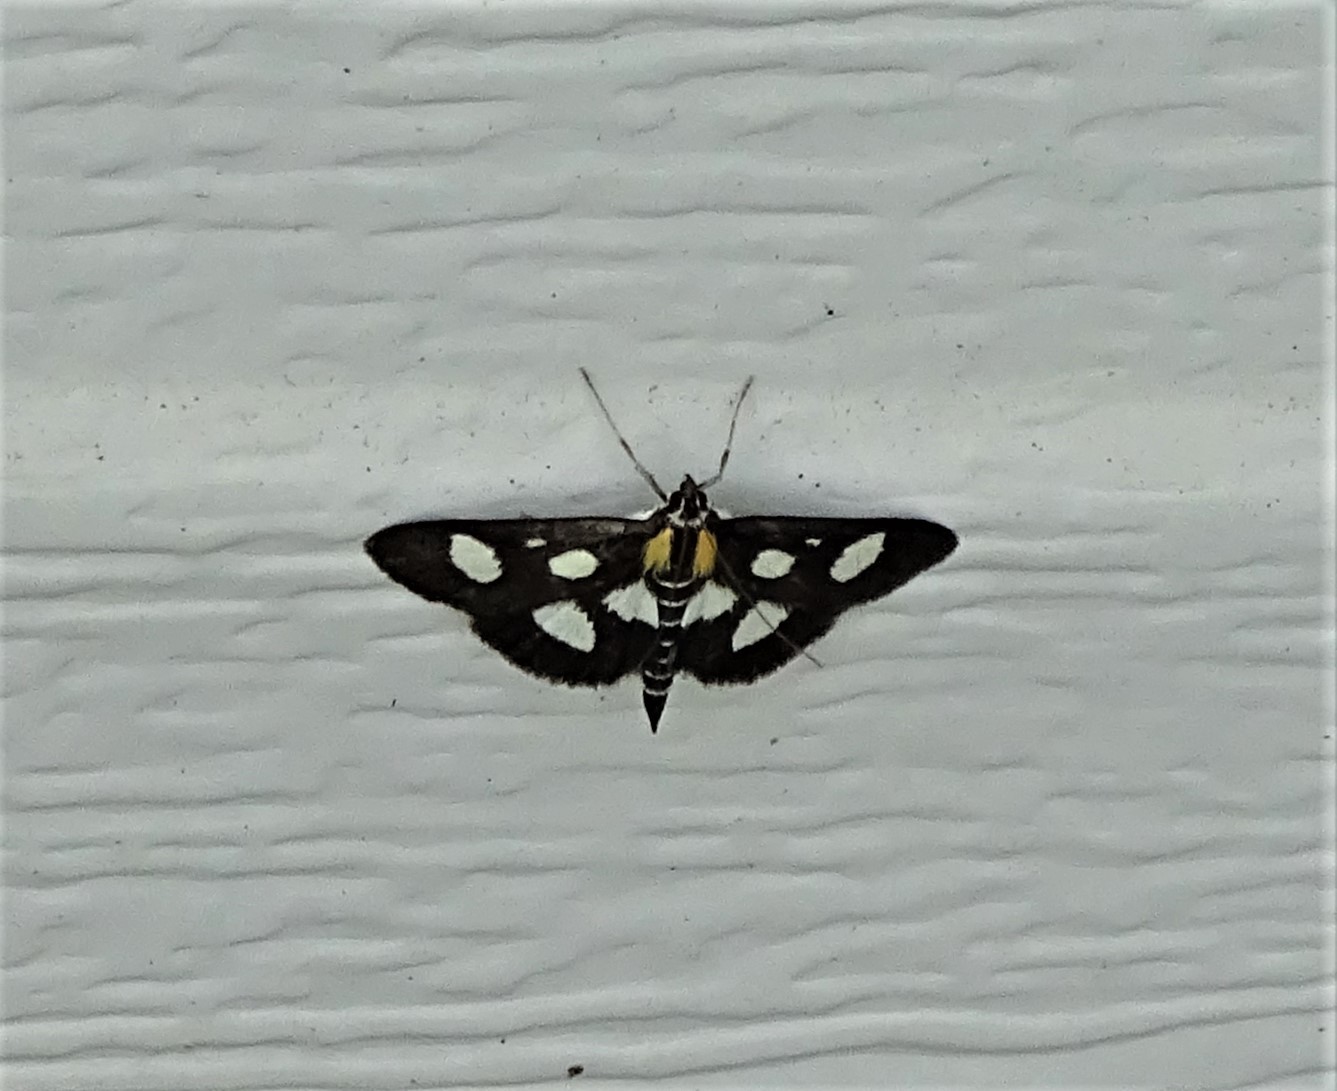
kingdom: Animalia
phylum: Arthropoda
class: Insecta
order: Lepidoptera
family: Crambidae
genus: Anania
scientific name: Anania funebris
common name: White-spotted sable moth
